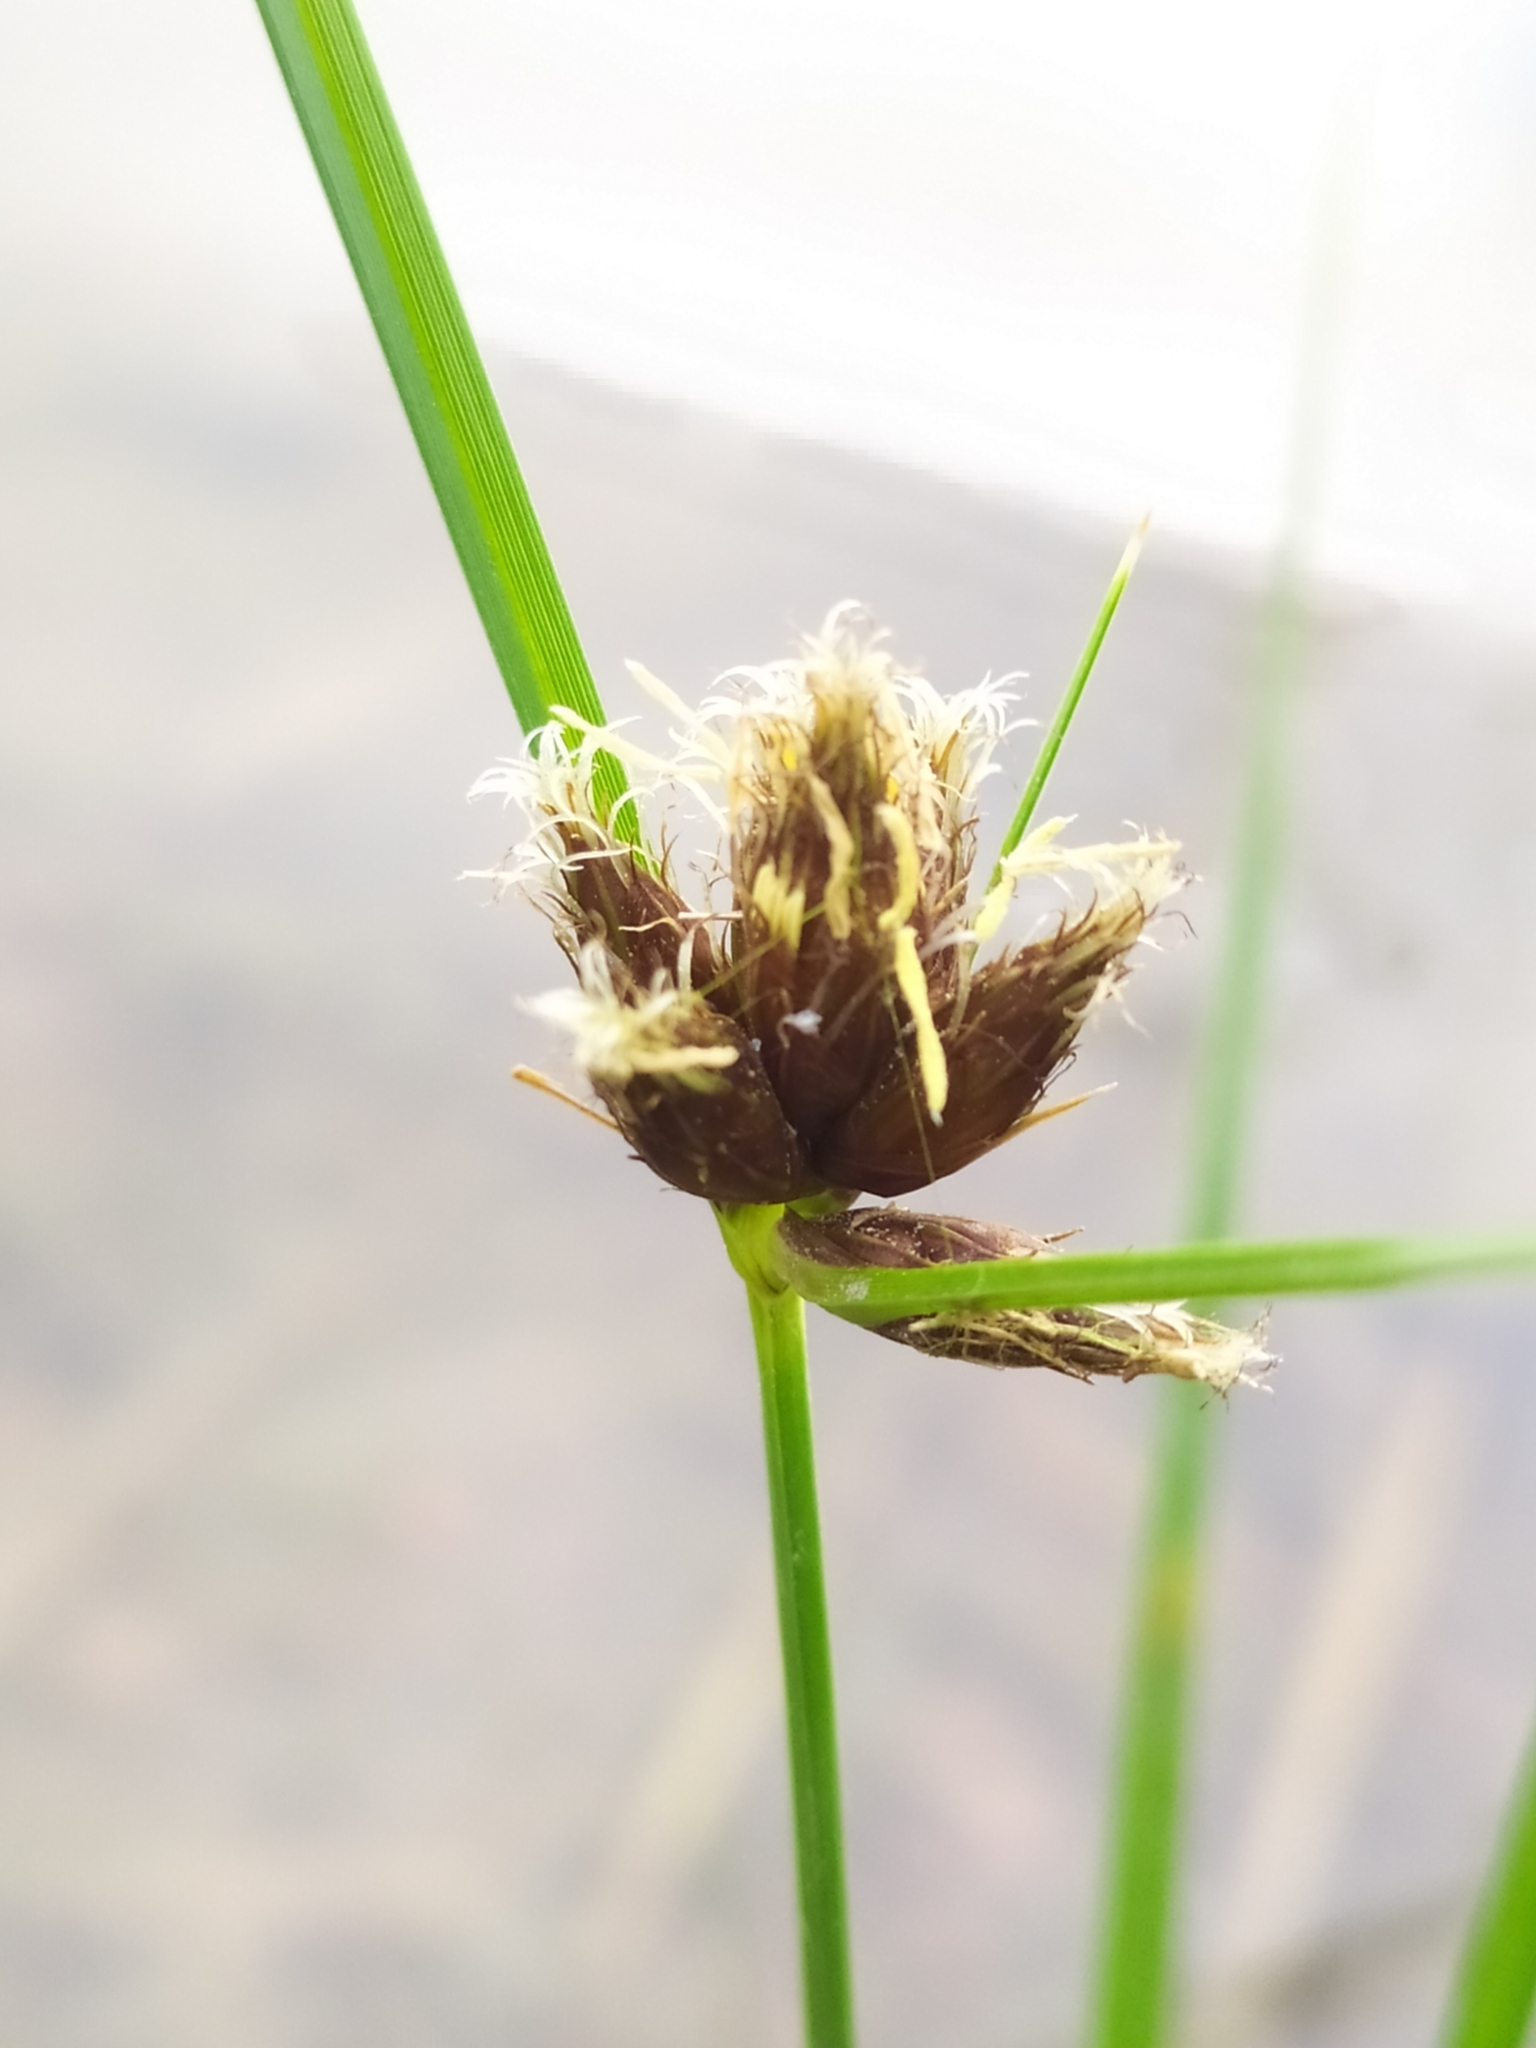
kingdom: Plantae
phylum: Tracheophyta
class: Liliopsida
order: Poales
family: Cyperaceae
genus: Bolboschoenus
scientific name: Bolboschoenus maritimus
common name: Sea club-rush
